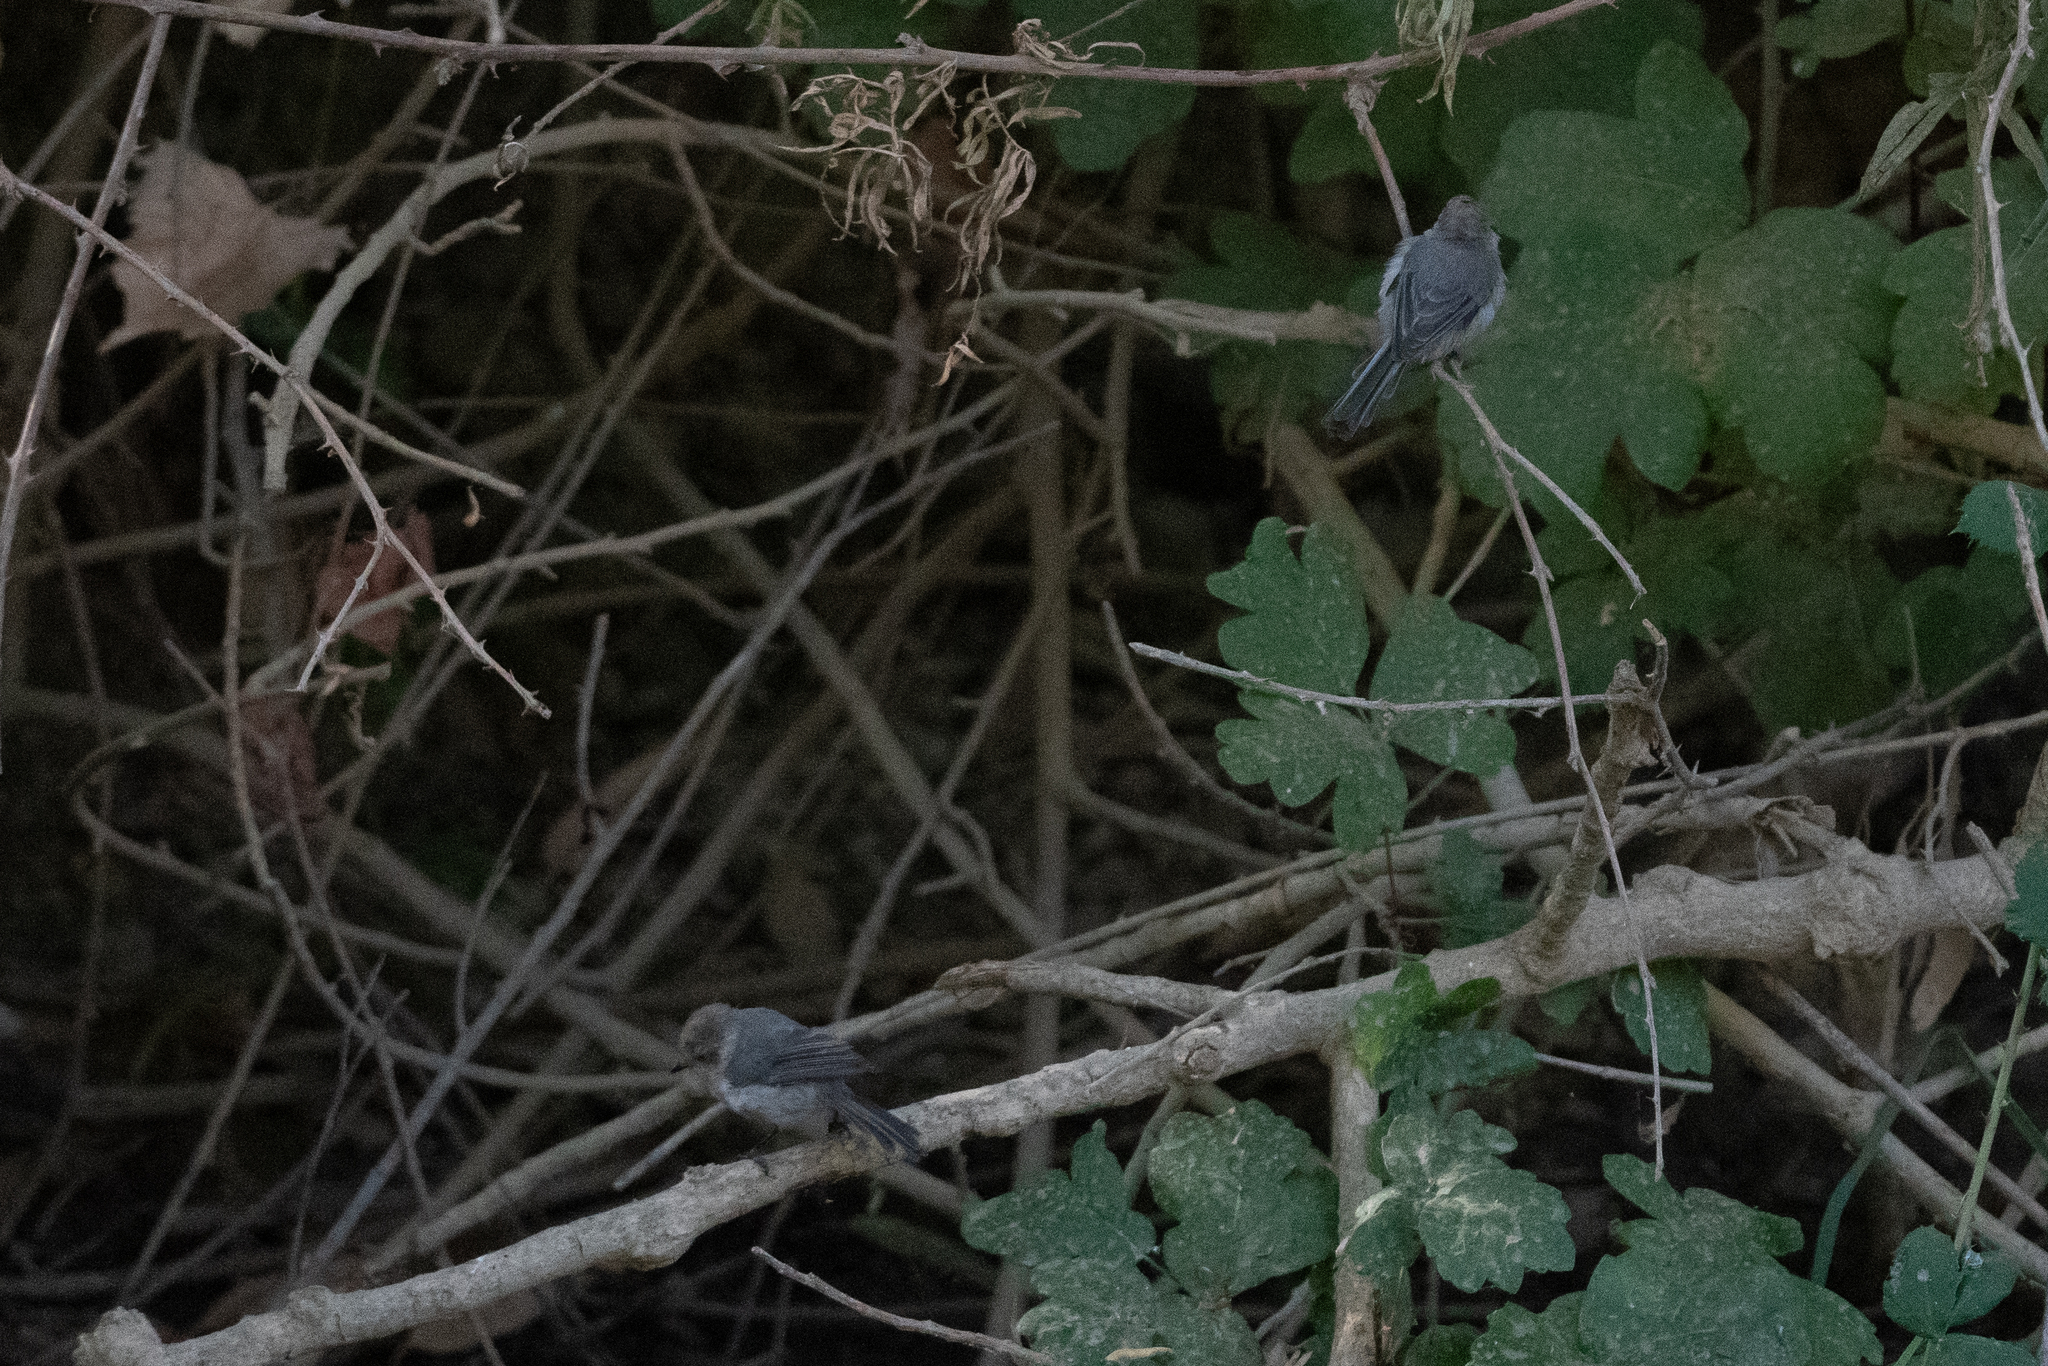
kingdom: Animalia
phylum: Chordata
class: Aves
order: Passeriformes
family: Aegithalidae
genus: Psaltriparus
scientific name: Psaltriparus minimus
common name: American bushtit
